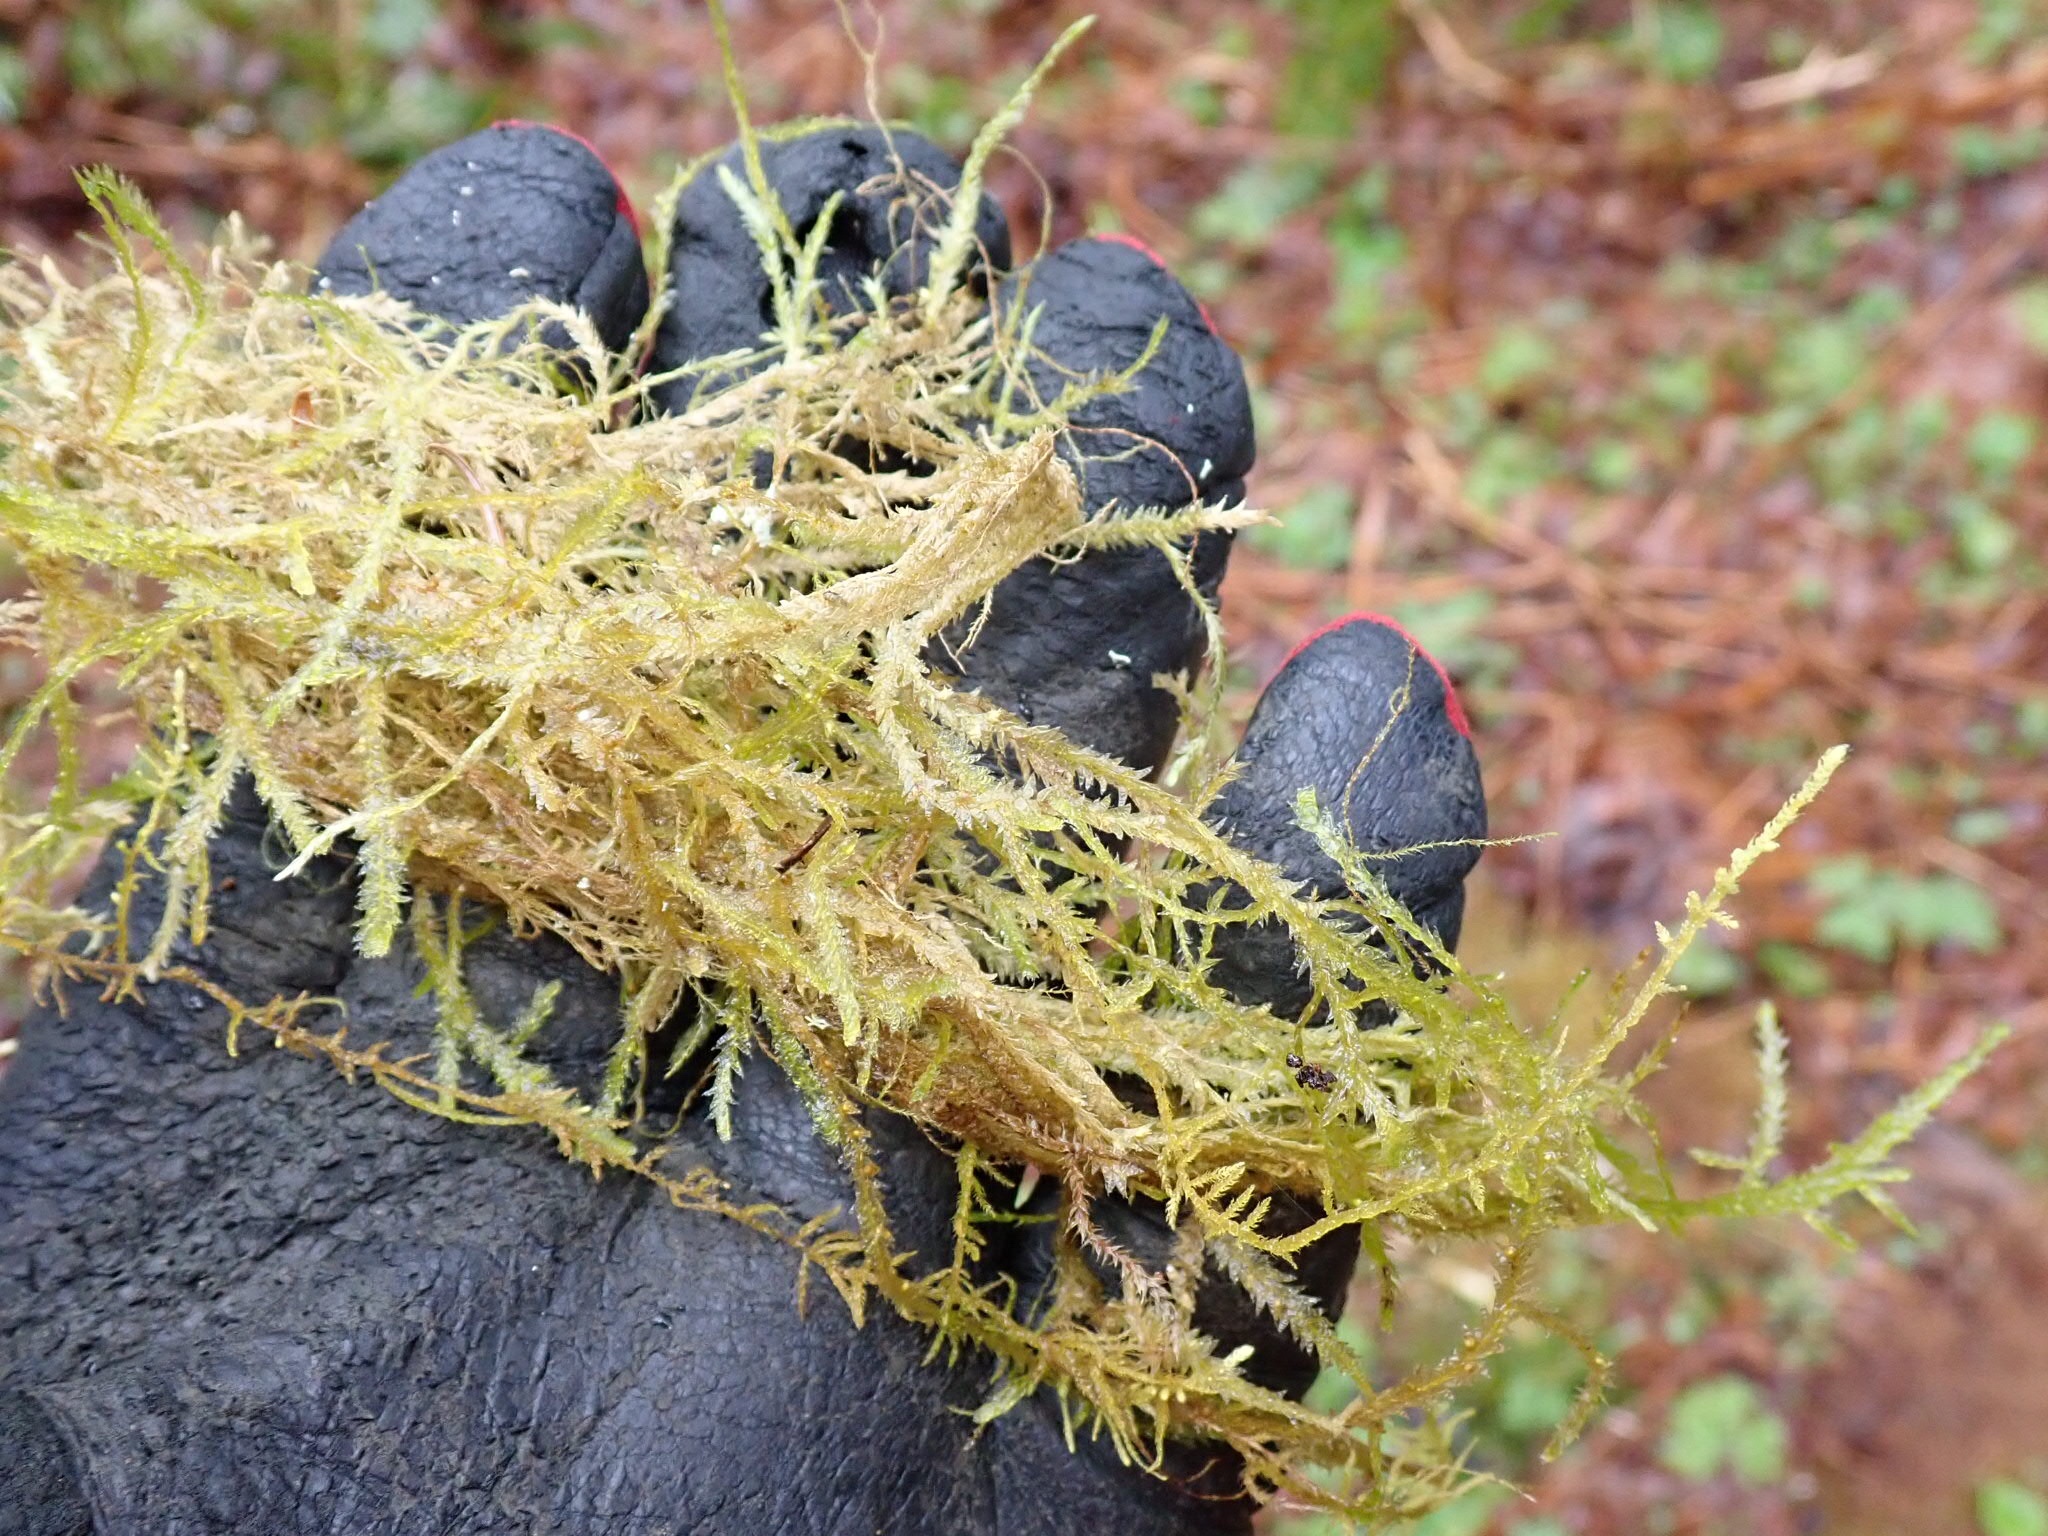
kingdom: Plantae
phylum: Bryophyta
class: Bryopsida
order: Hypnales
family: Neckeraceae
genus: Metaneckera
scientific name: Metaneckera menziesii
